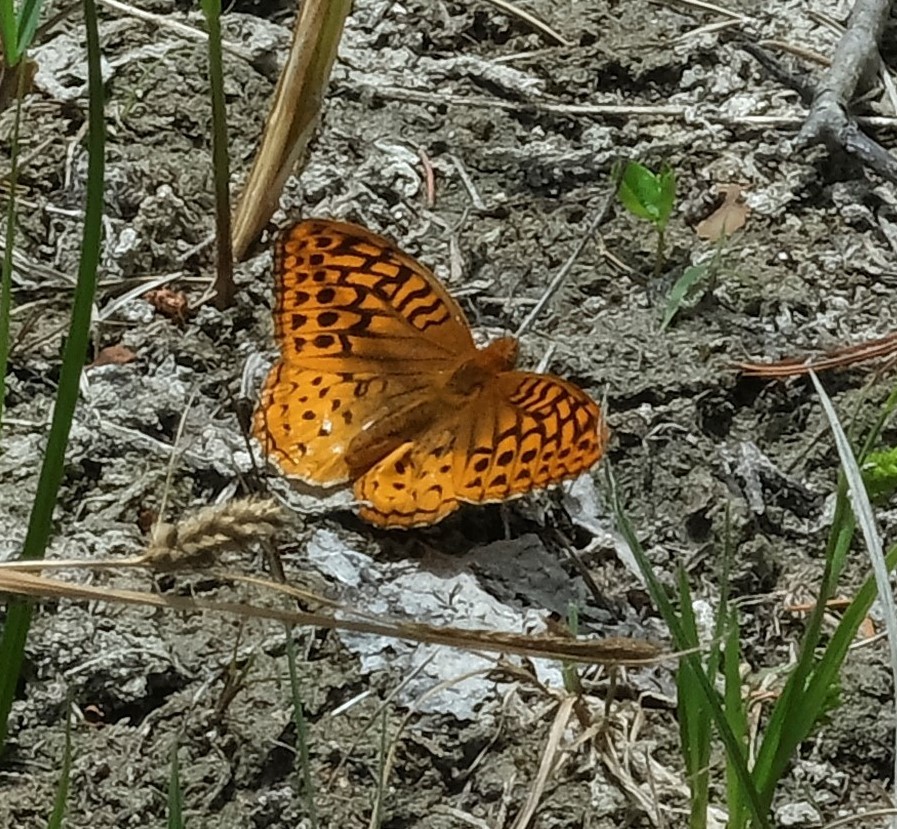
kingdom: Animalia
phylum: Arthropoda
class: Insecta
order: Lepidoptera
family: Nymphalidae
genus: Speyeria
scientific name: Speyeria cybele
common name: Great spangled fritillary
